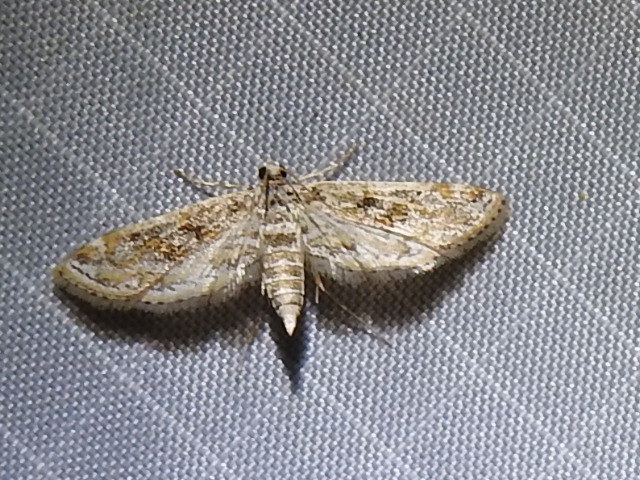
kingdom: Animalia
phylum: Arthropoda
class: Insecta
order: Lepidoptera
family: Crambidae
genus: Parapoynx
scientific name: Parapoynx diminutalis
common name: Hydrilla leafcutter
